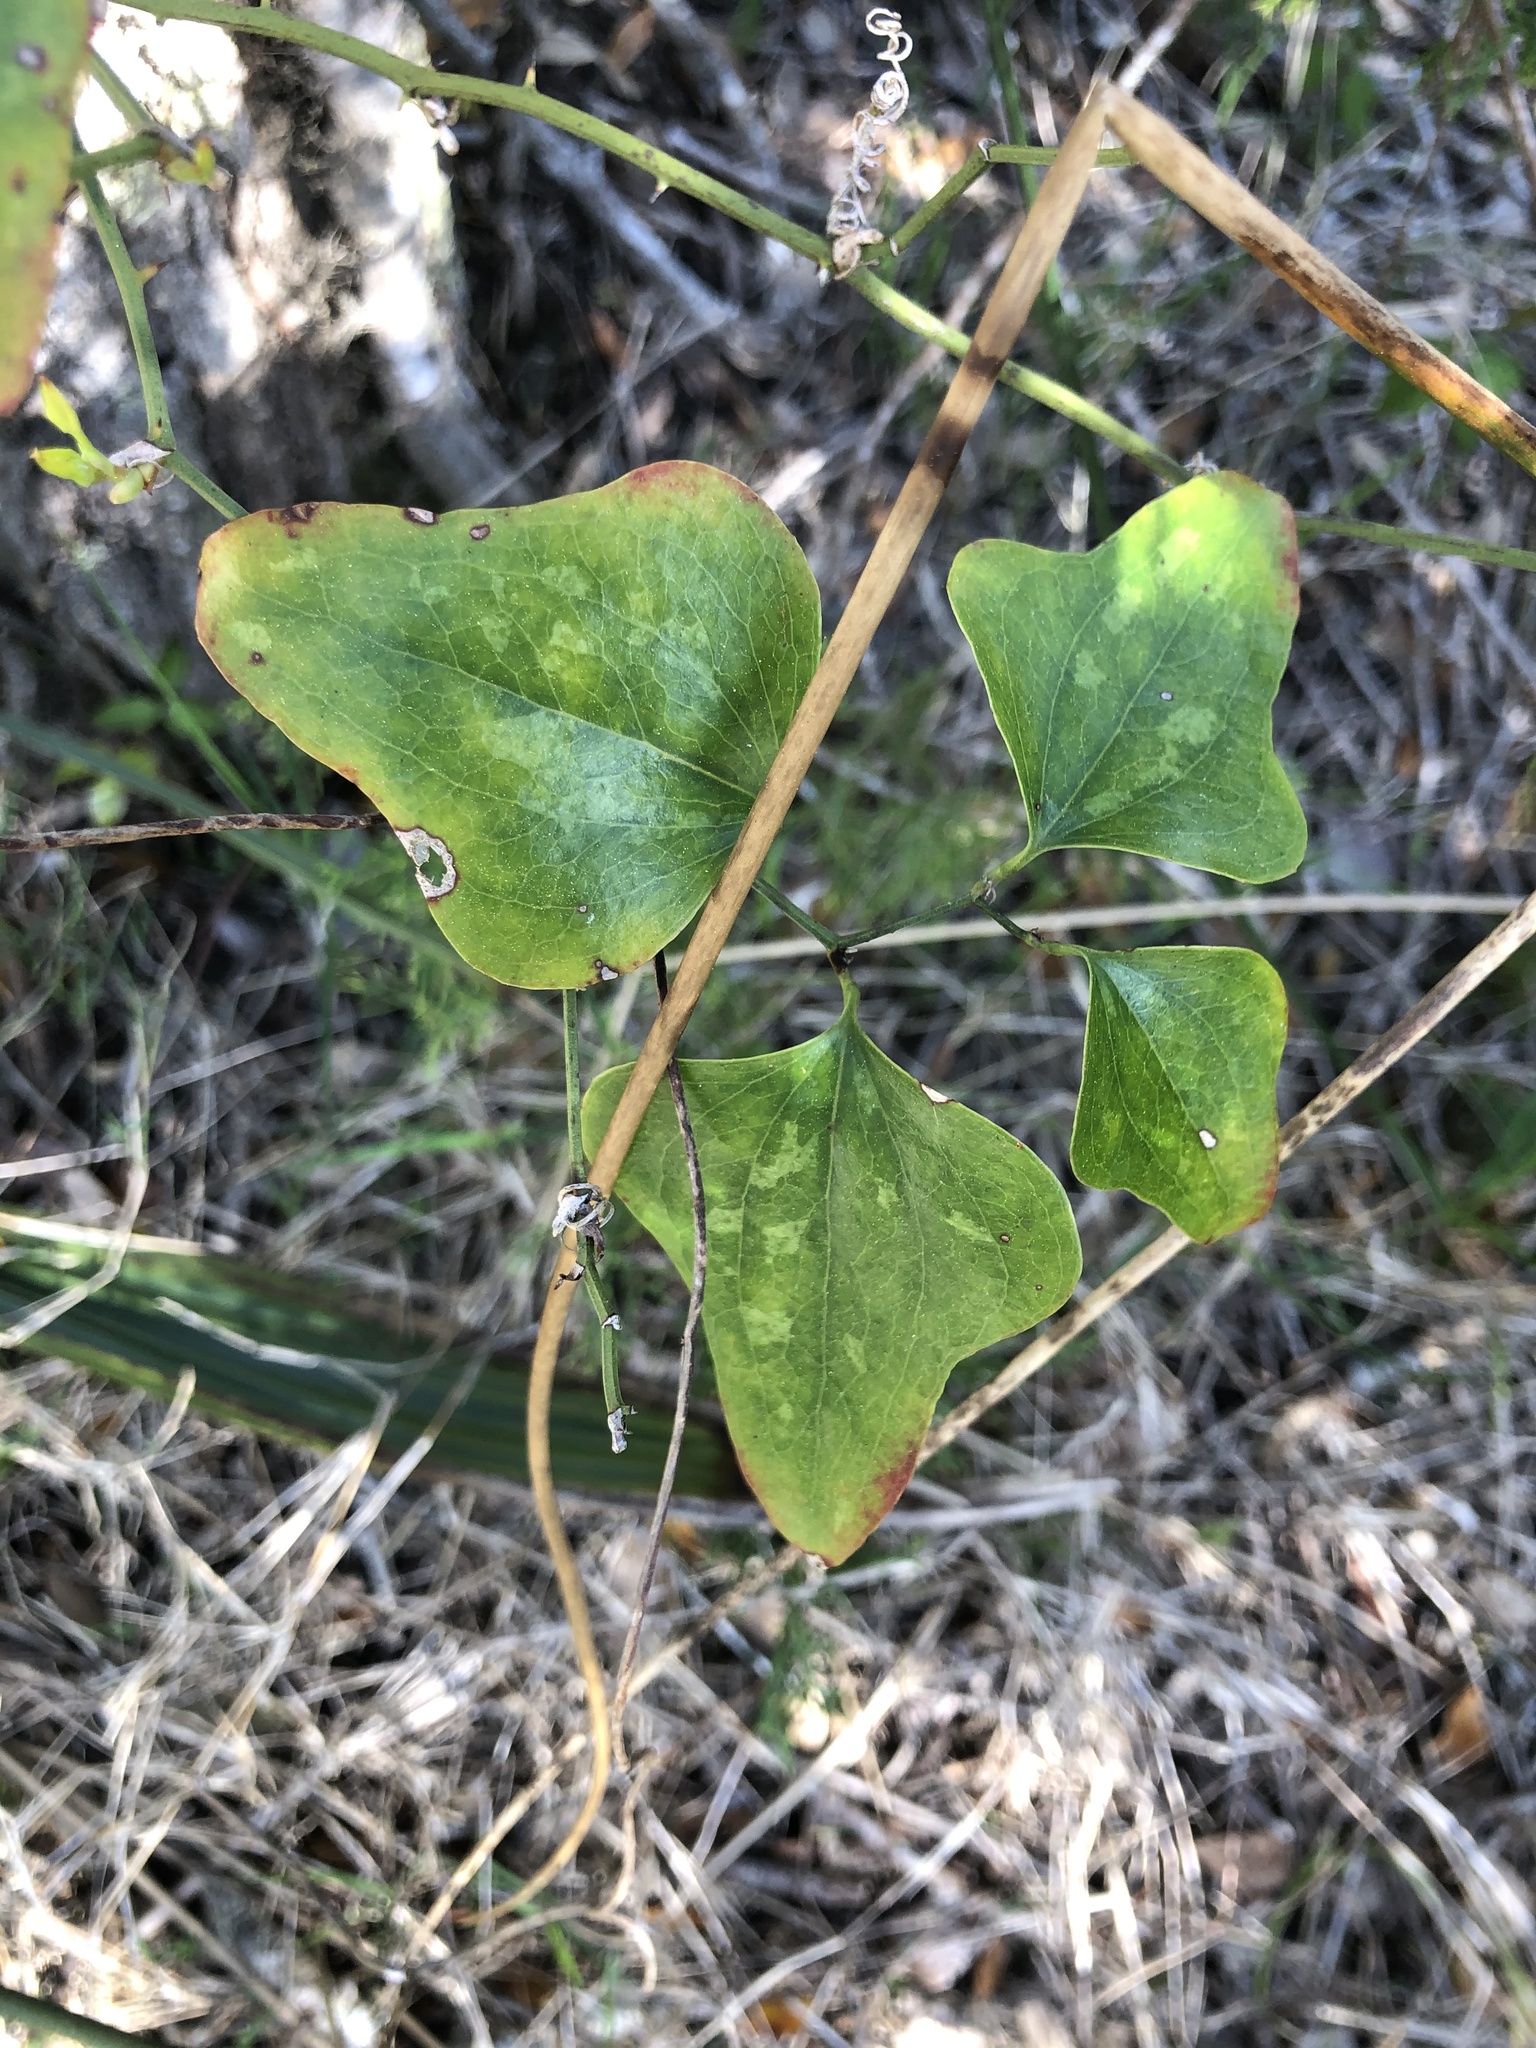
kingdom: Plantae
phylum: Tracheophyta
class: Liliopsida
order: Liliales
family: Smilacaceae
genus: Smilax
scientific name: Smilax bona-nox
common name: Catbrier
